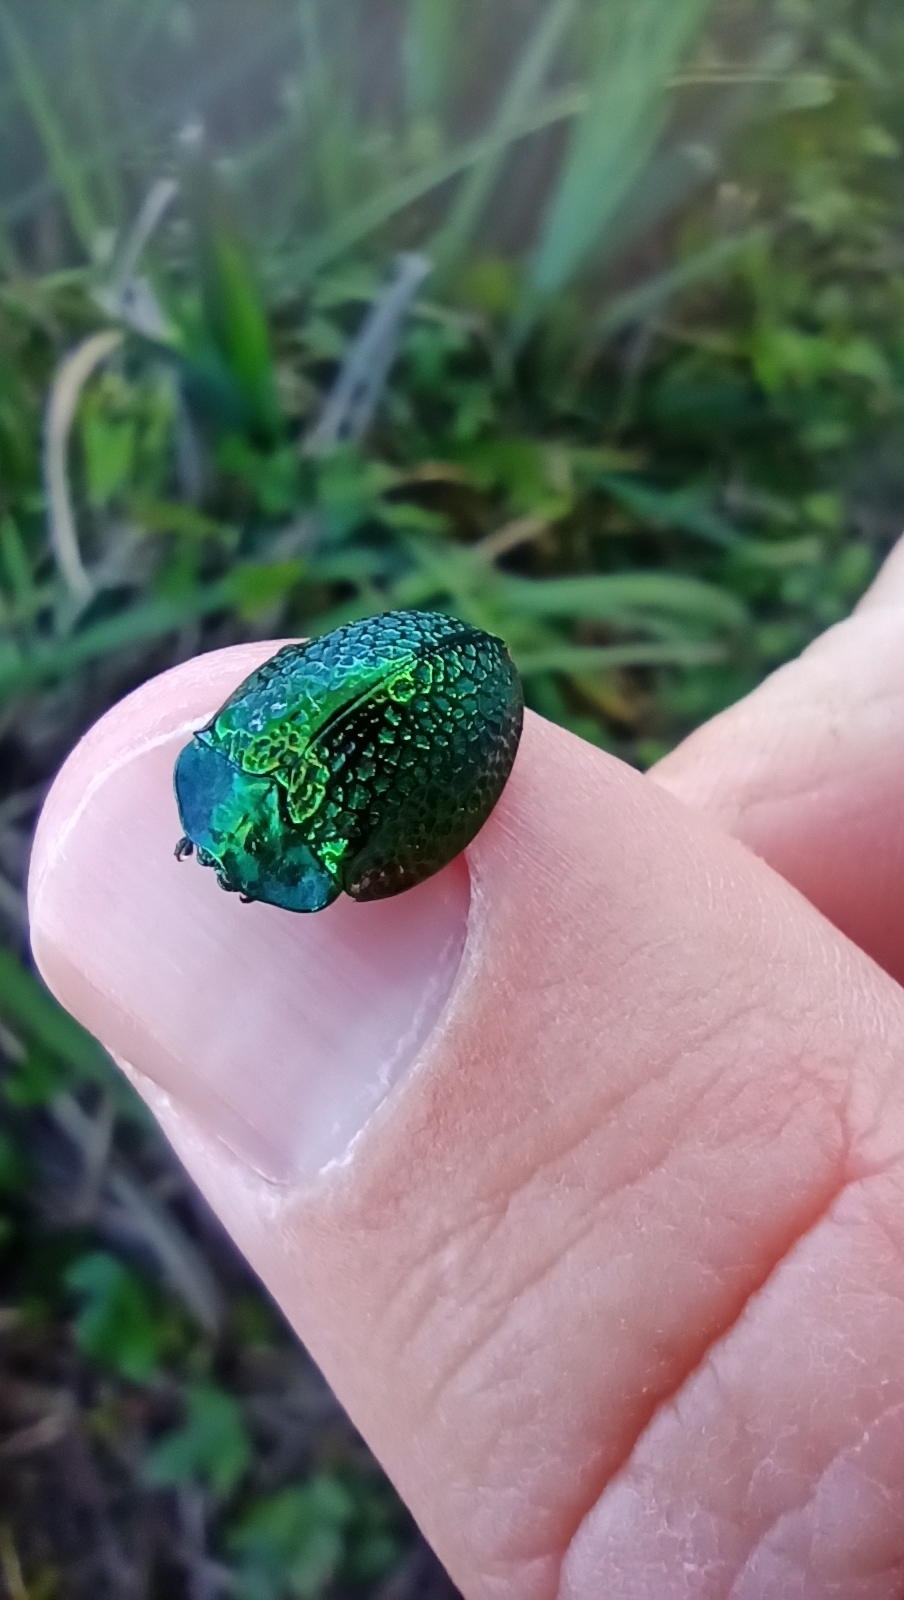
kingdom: Animalia
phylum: Arthropoda
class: Insecta
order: Coleoptera
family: Chrysomelidae
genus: Stolas
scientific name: Stolas festiva
